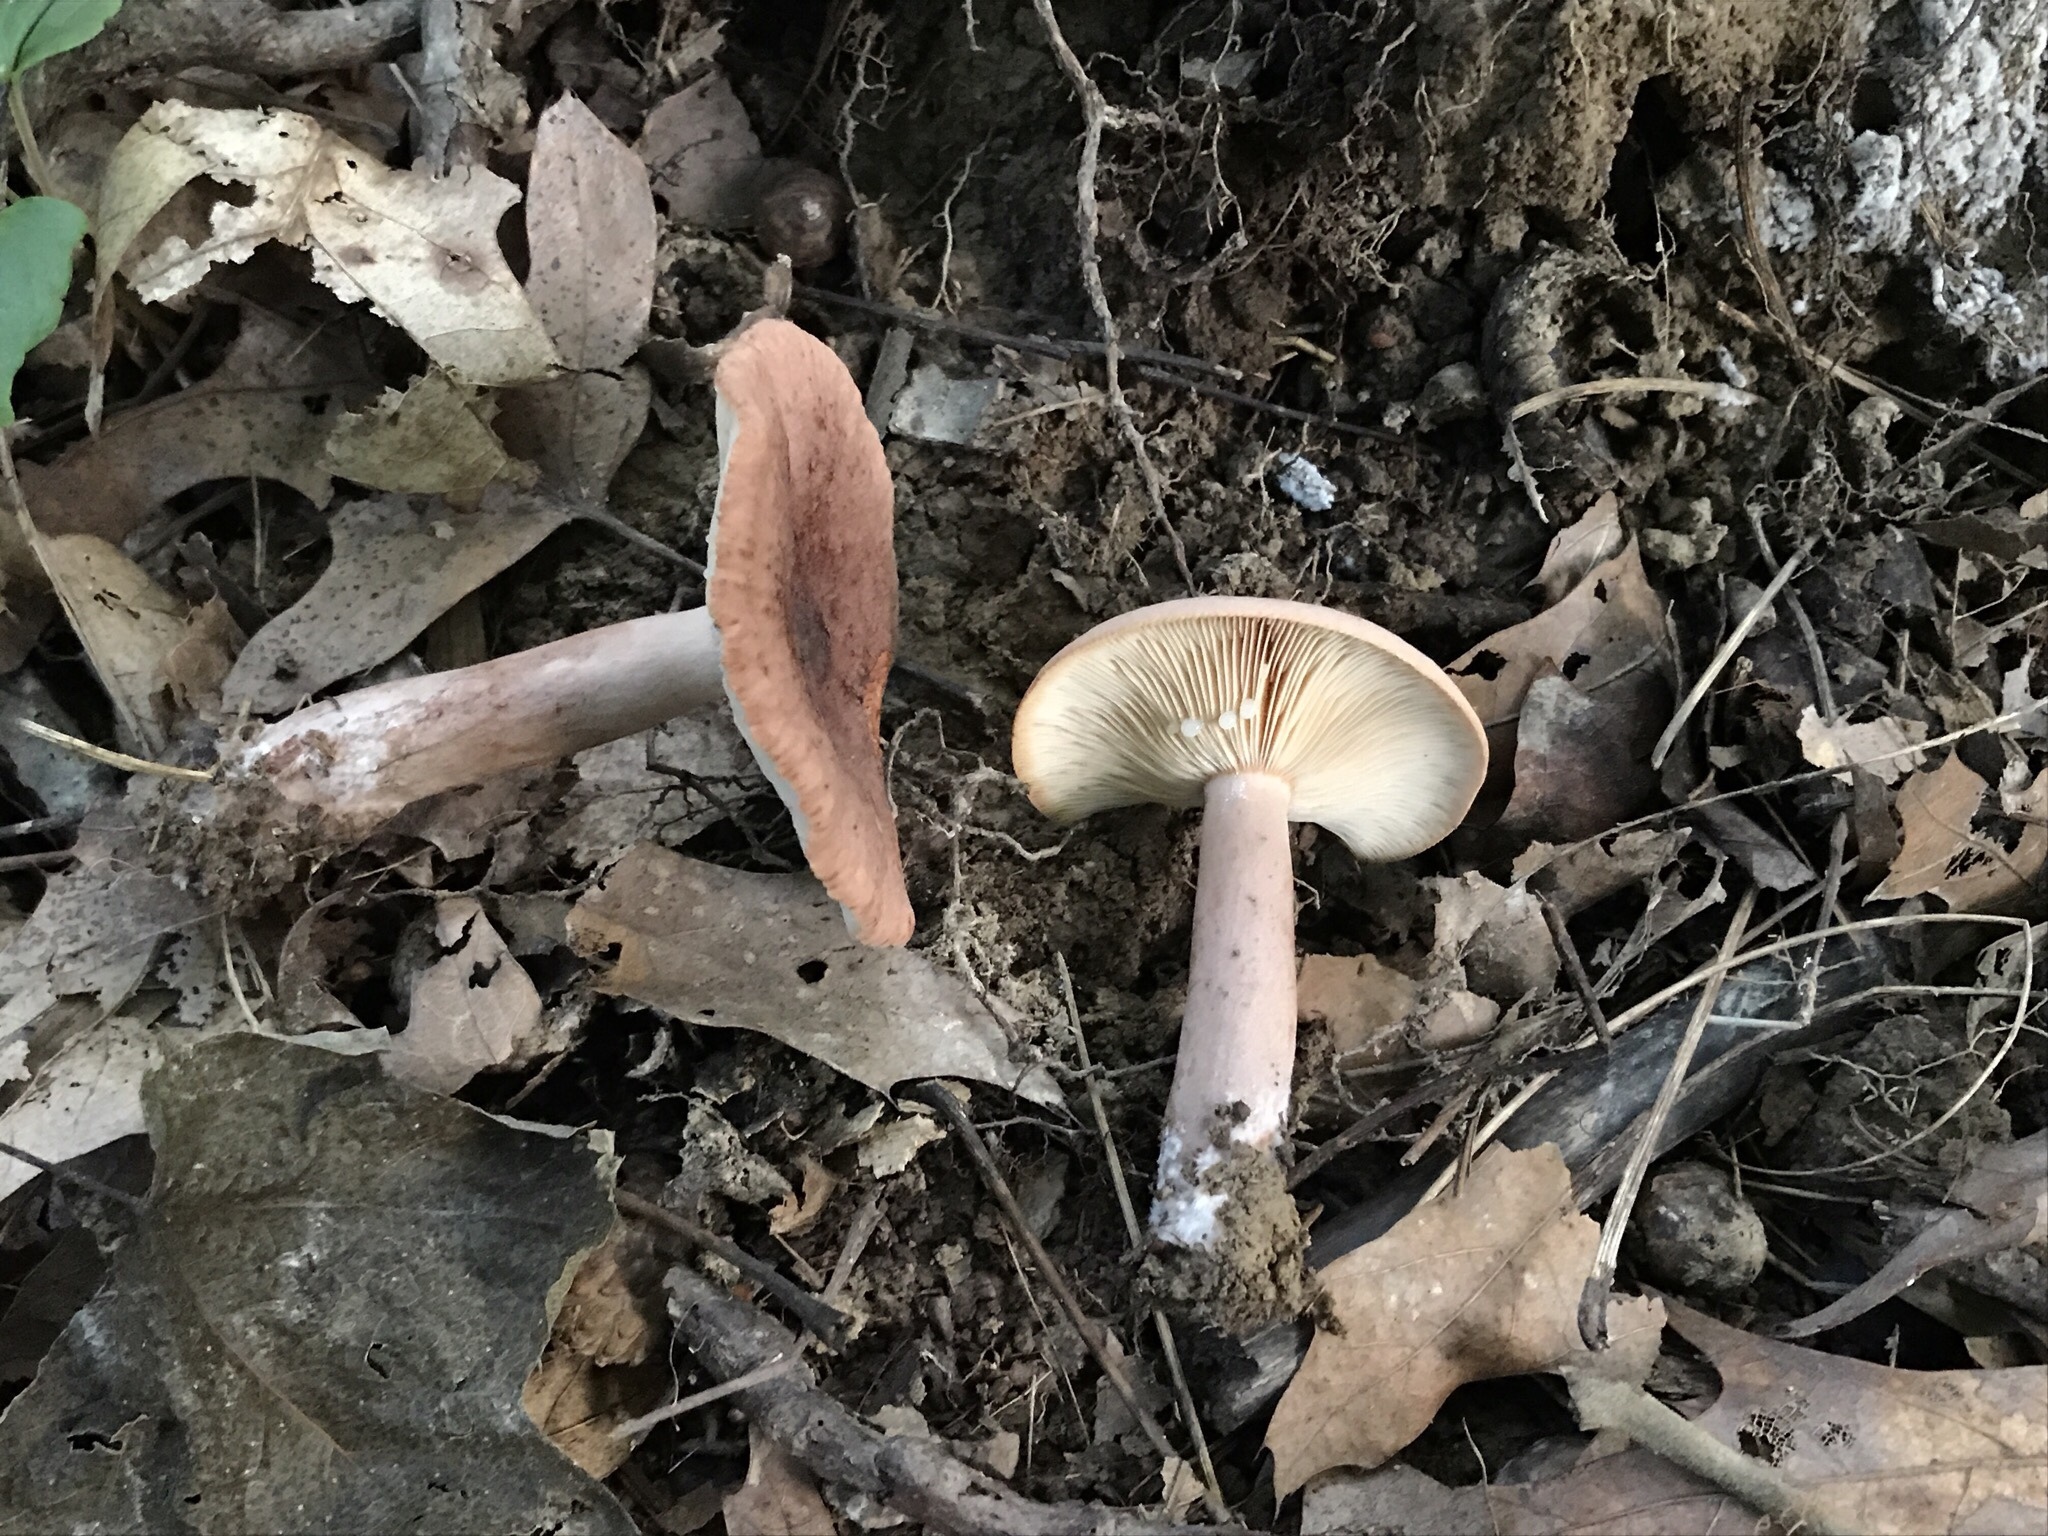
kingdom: Fungi
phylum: Basidiomycota
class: Agaricomycetes
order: Russulales
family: Russulaceae
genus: Lactarius
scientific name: Lactarius mutabilis
